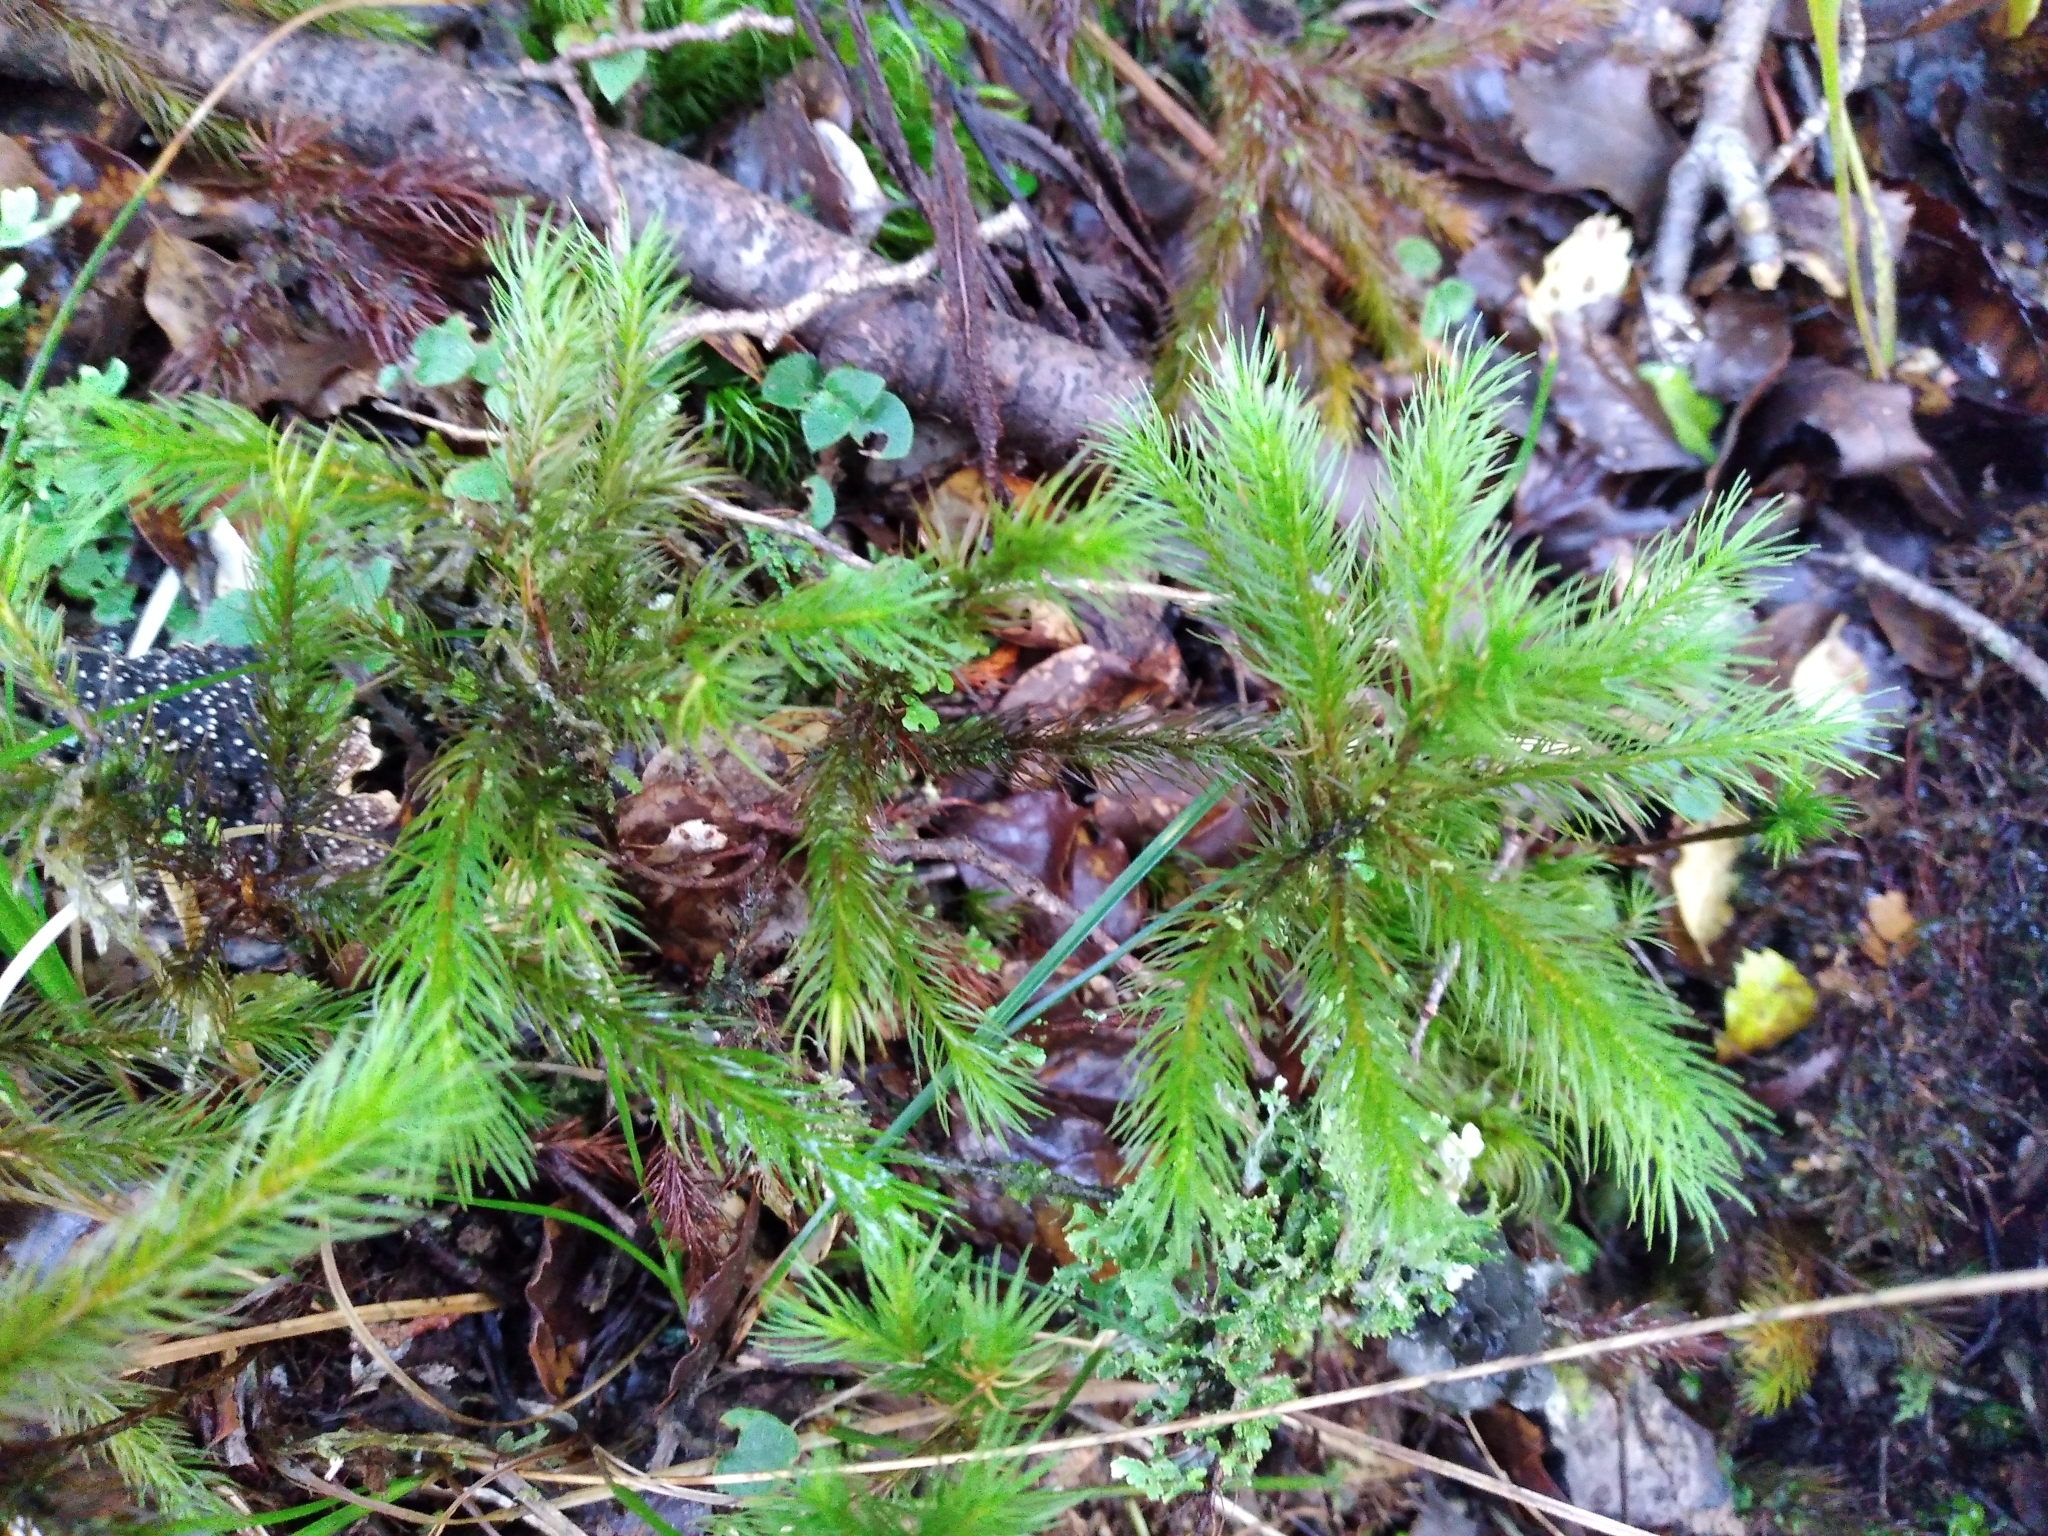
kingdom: Plantae
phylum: Bryophyta
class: Polytrichopsida
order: Polytrichales
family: Polytrichaceae
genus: Dendroligotrichum
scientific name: Dendroligotrichum tongariroense
